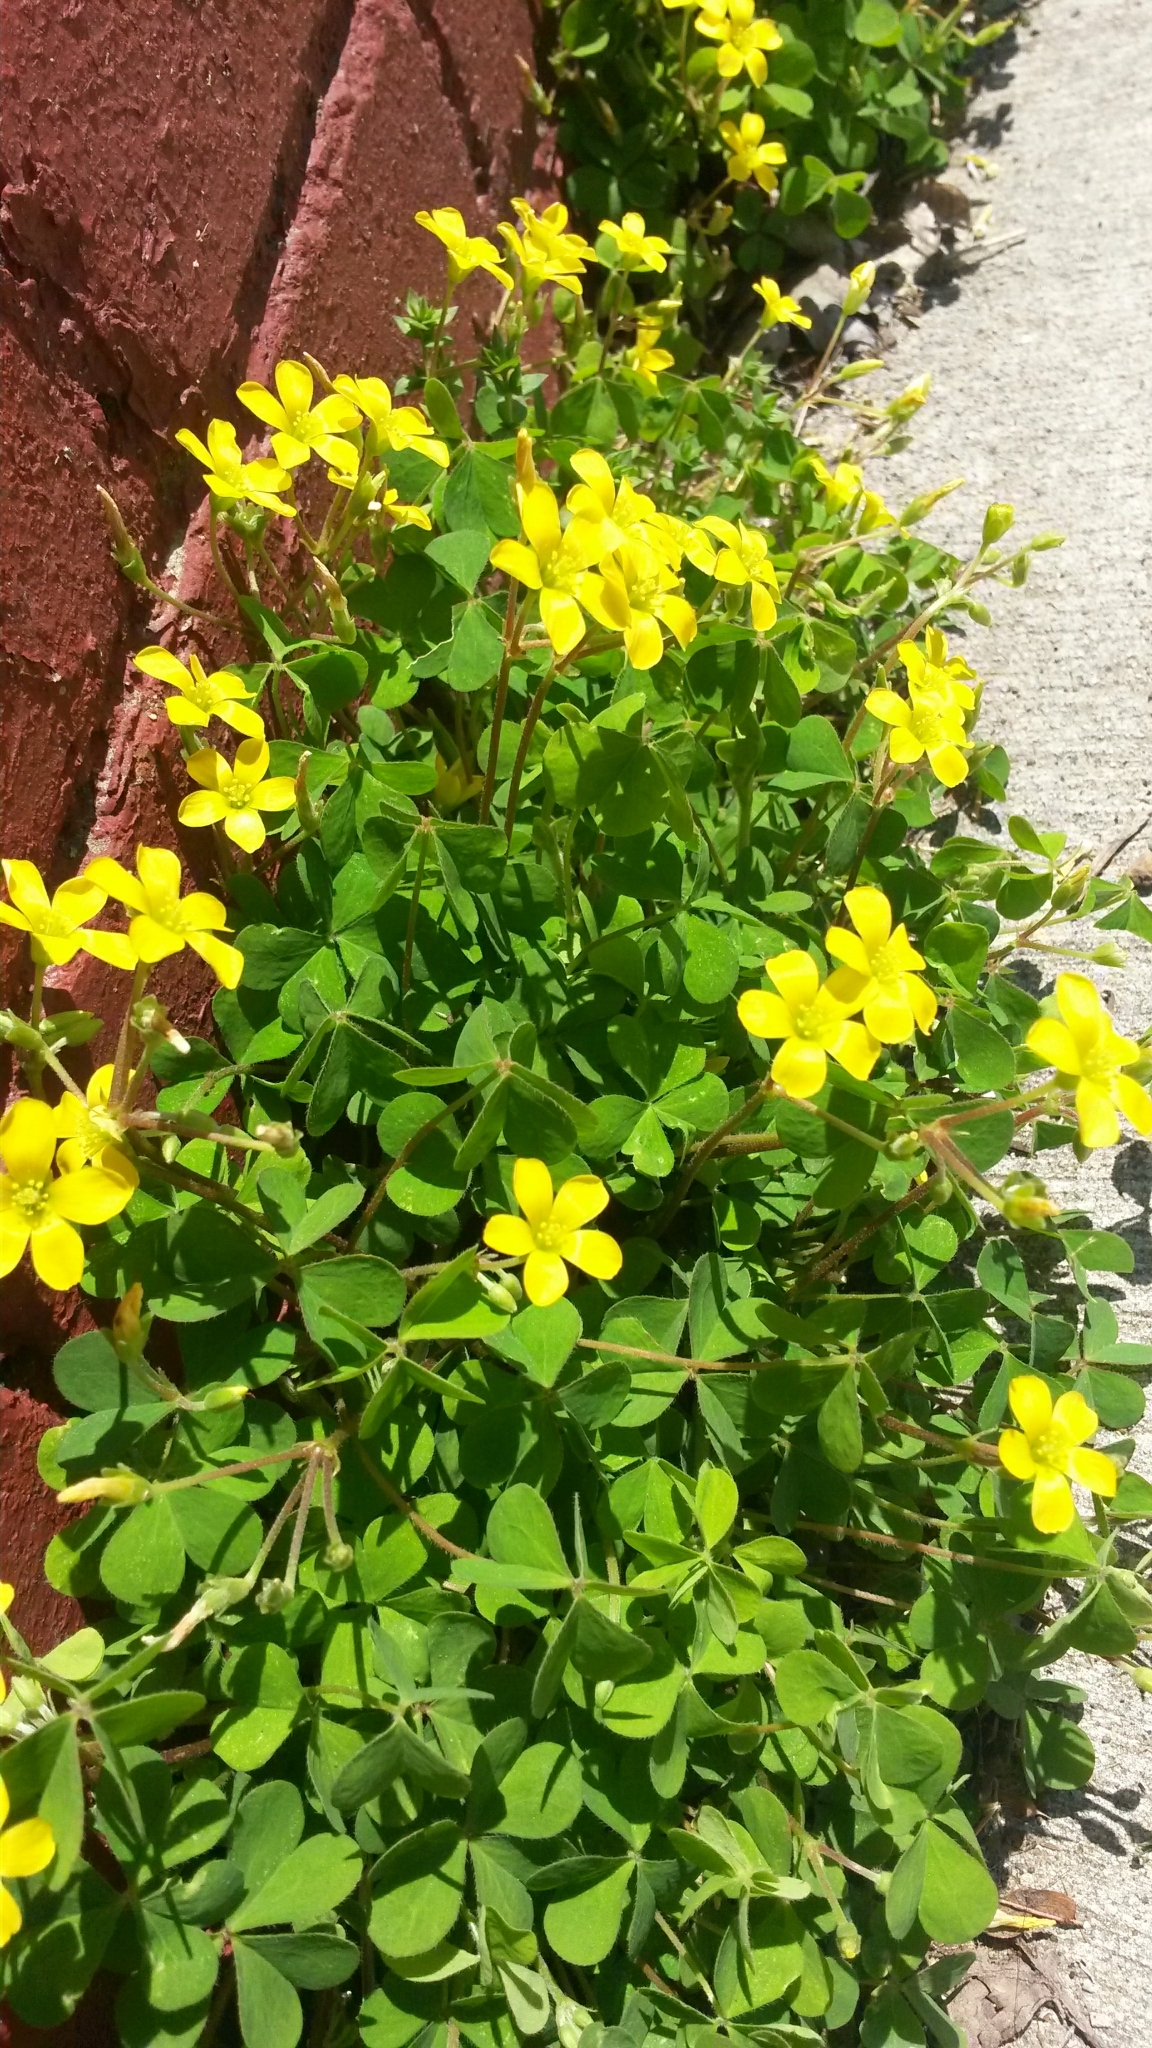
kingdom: Plantae
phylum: Tracheophyta
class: Magnoliopsida
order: Oxalidales
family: Oxalidaceae
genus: Oxalis
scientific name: Oxalis dillenii
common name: Sussex yellow-sorrel
